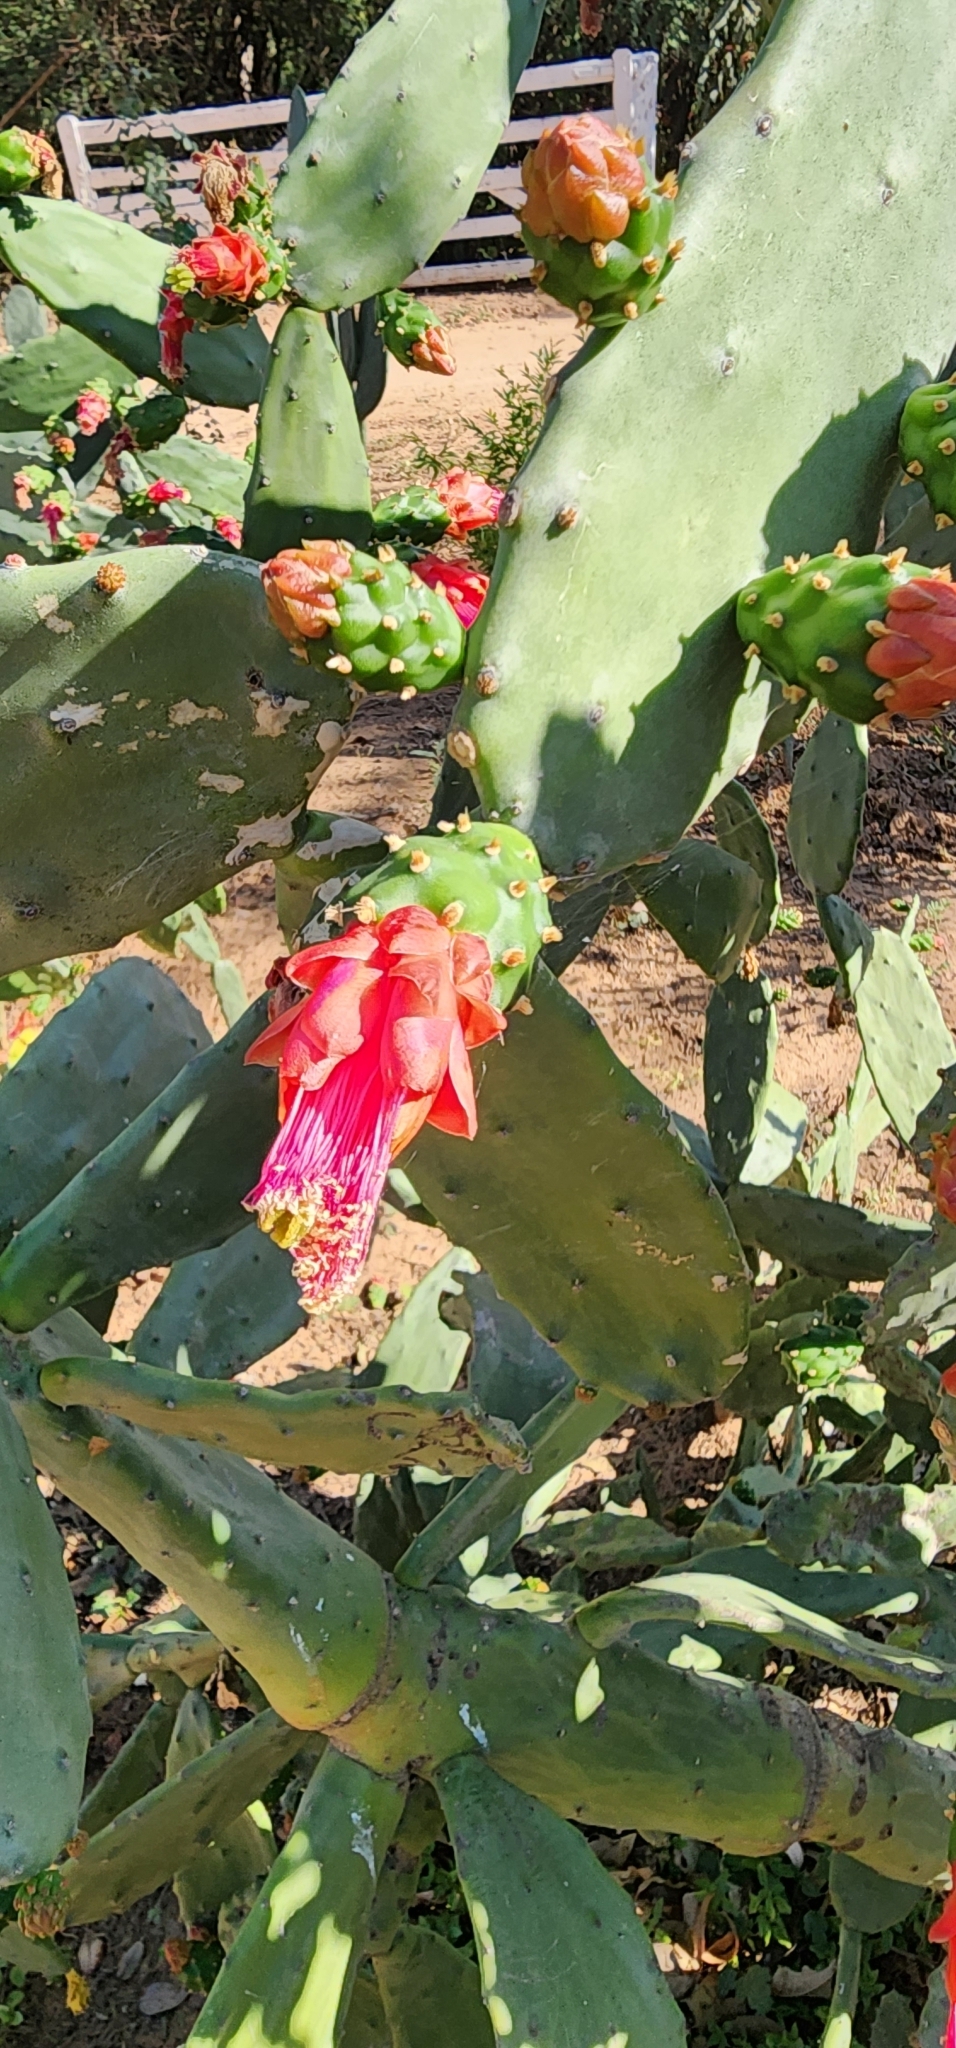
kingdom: Plantae
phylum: Tracheophyta
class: Magnoliopsida
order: Caryophyllales
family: Cactaceae
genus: Opuntia
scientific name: Opuntia cochenillifera
